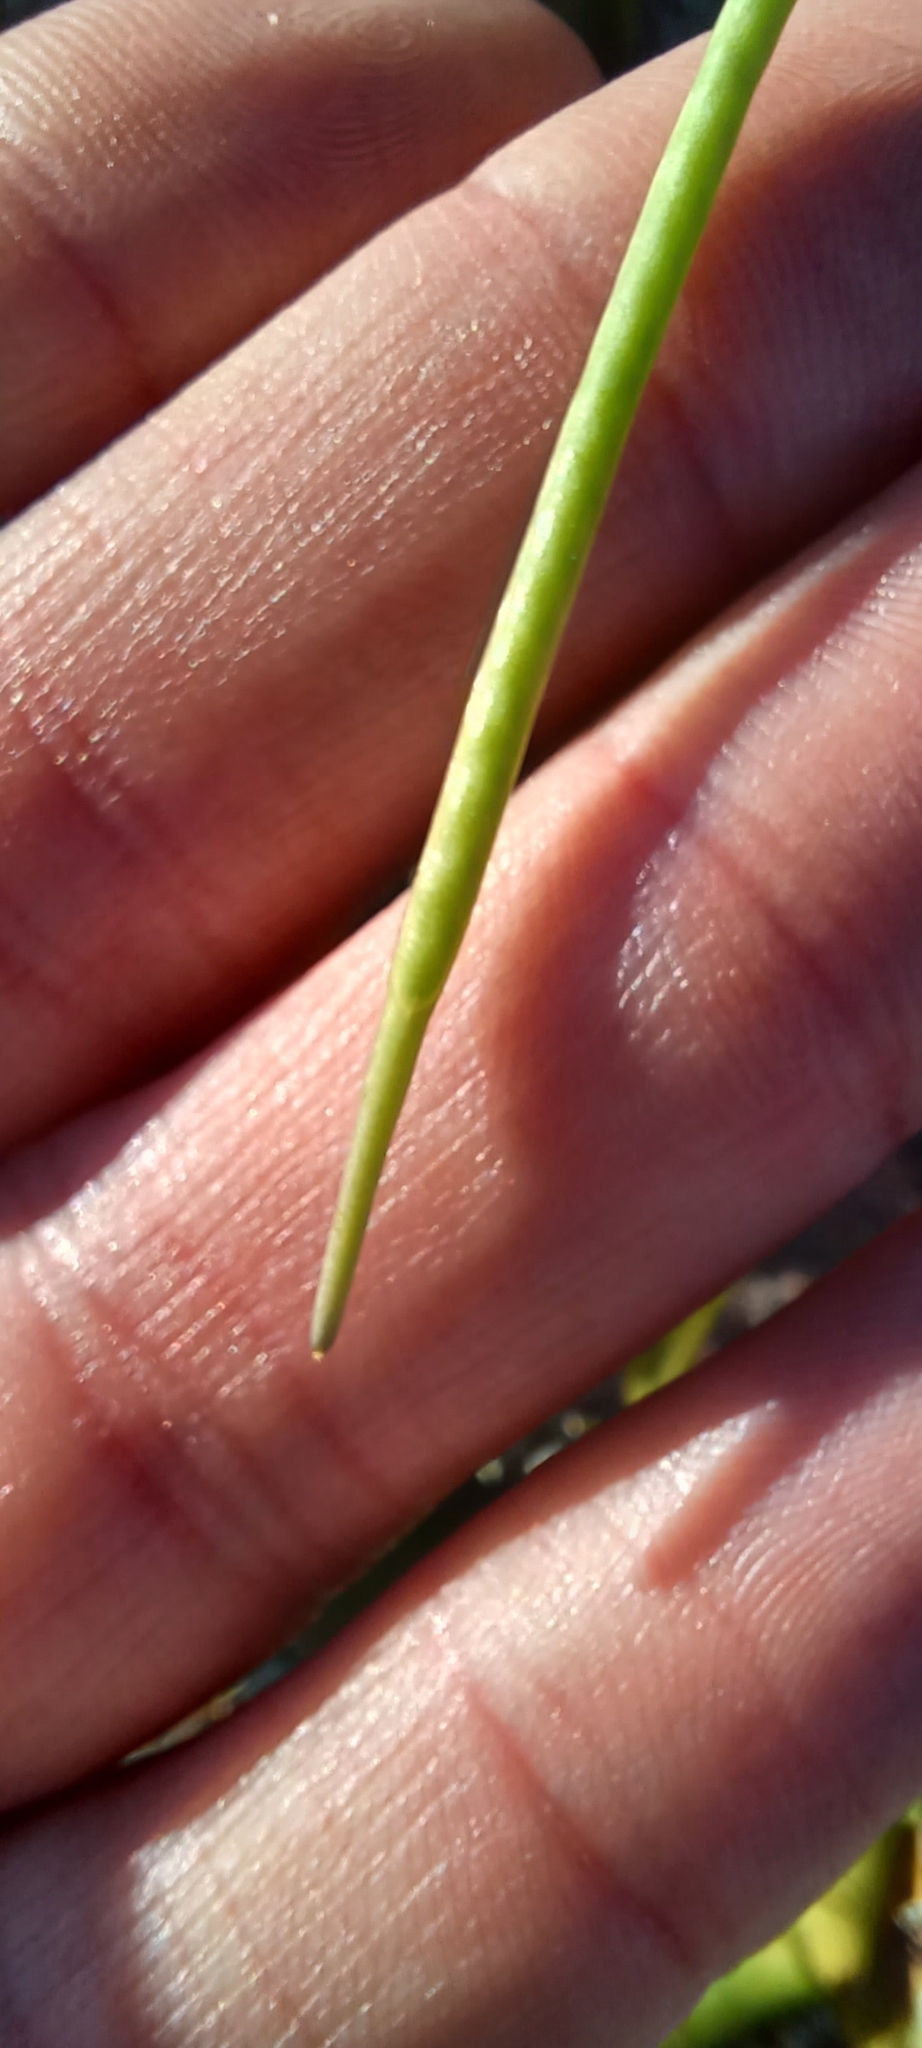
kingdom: Plantae
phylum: Tracheophyta
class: Magnoliopsida
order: Brassicales
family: Brassicaceae
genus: Heliophila
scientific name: Heliophila decurva
